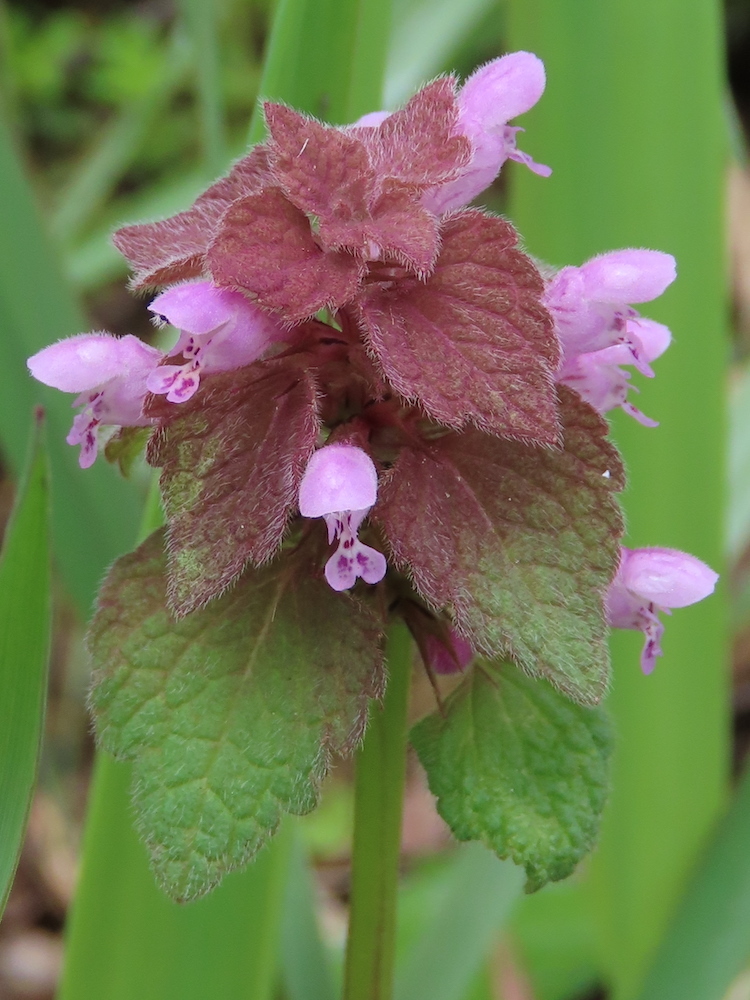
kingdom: Plantae
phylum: Tracheophyta
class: Magnoliopsida
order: Lamiales
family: Lamiaceae
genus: Lamium
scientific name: Lamium purpureum
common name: Red dead-nettle
